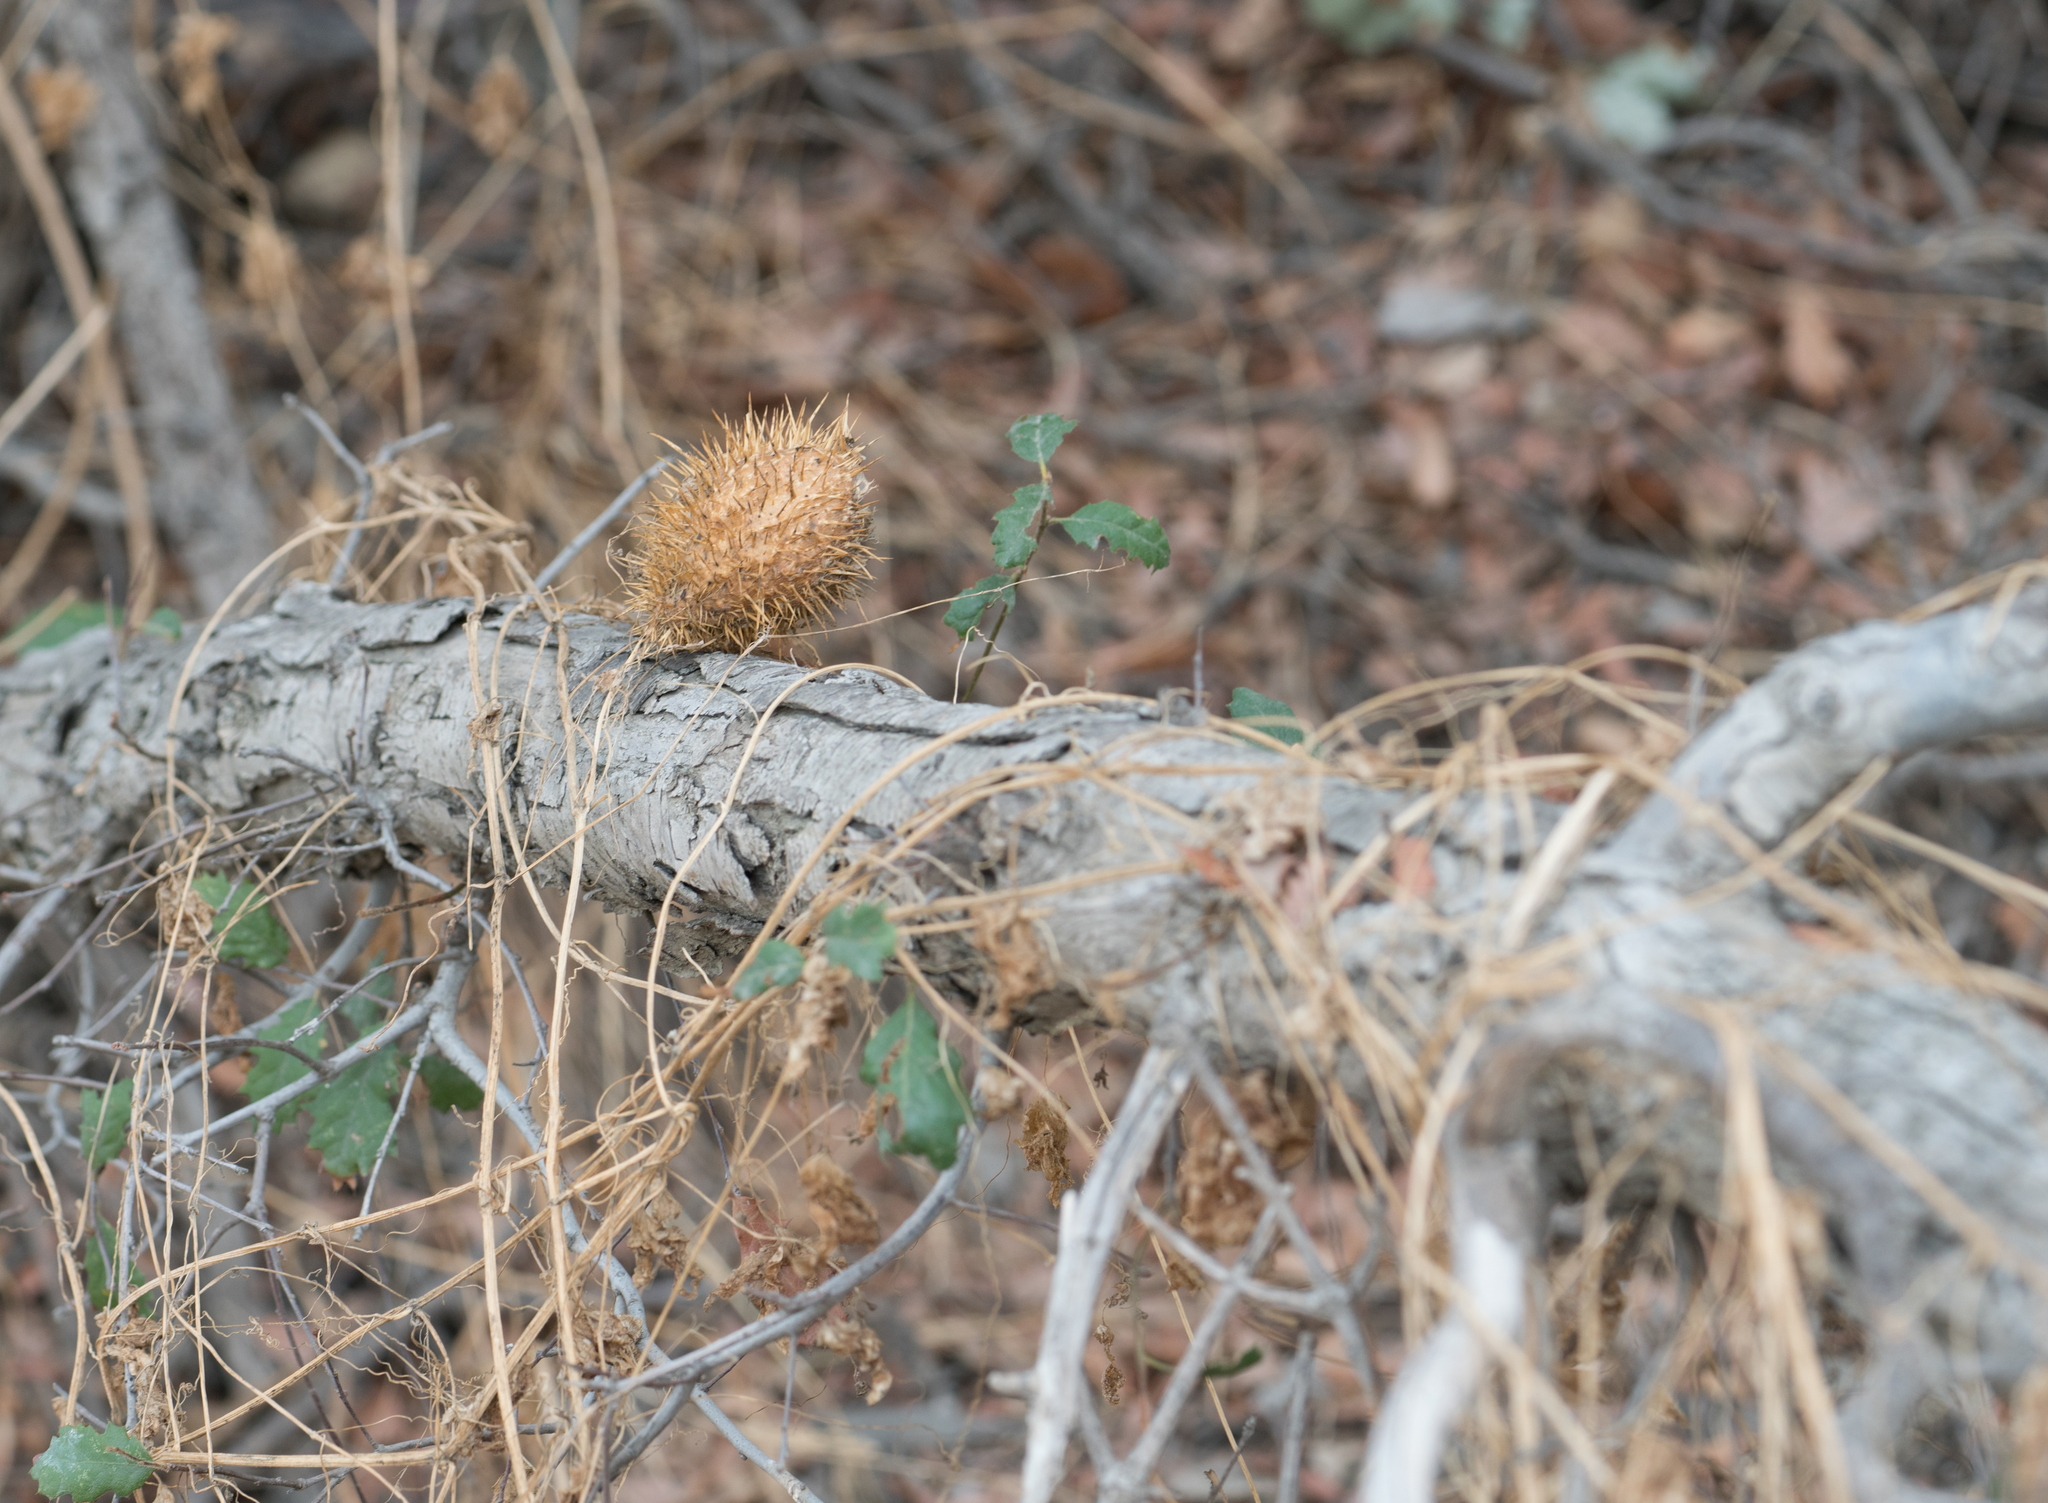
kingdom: Plantae
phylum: Tracheophyta
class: Magnoliopsida
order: Cucurbitales
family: Cucurbitaceae
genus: Marah
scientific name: Marah macrocarpa
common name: Cucamonga manroot
